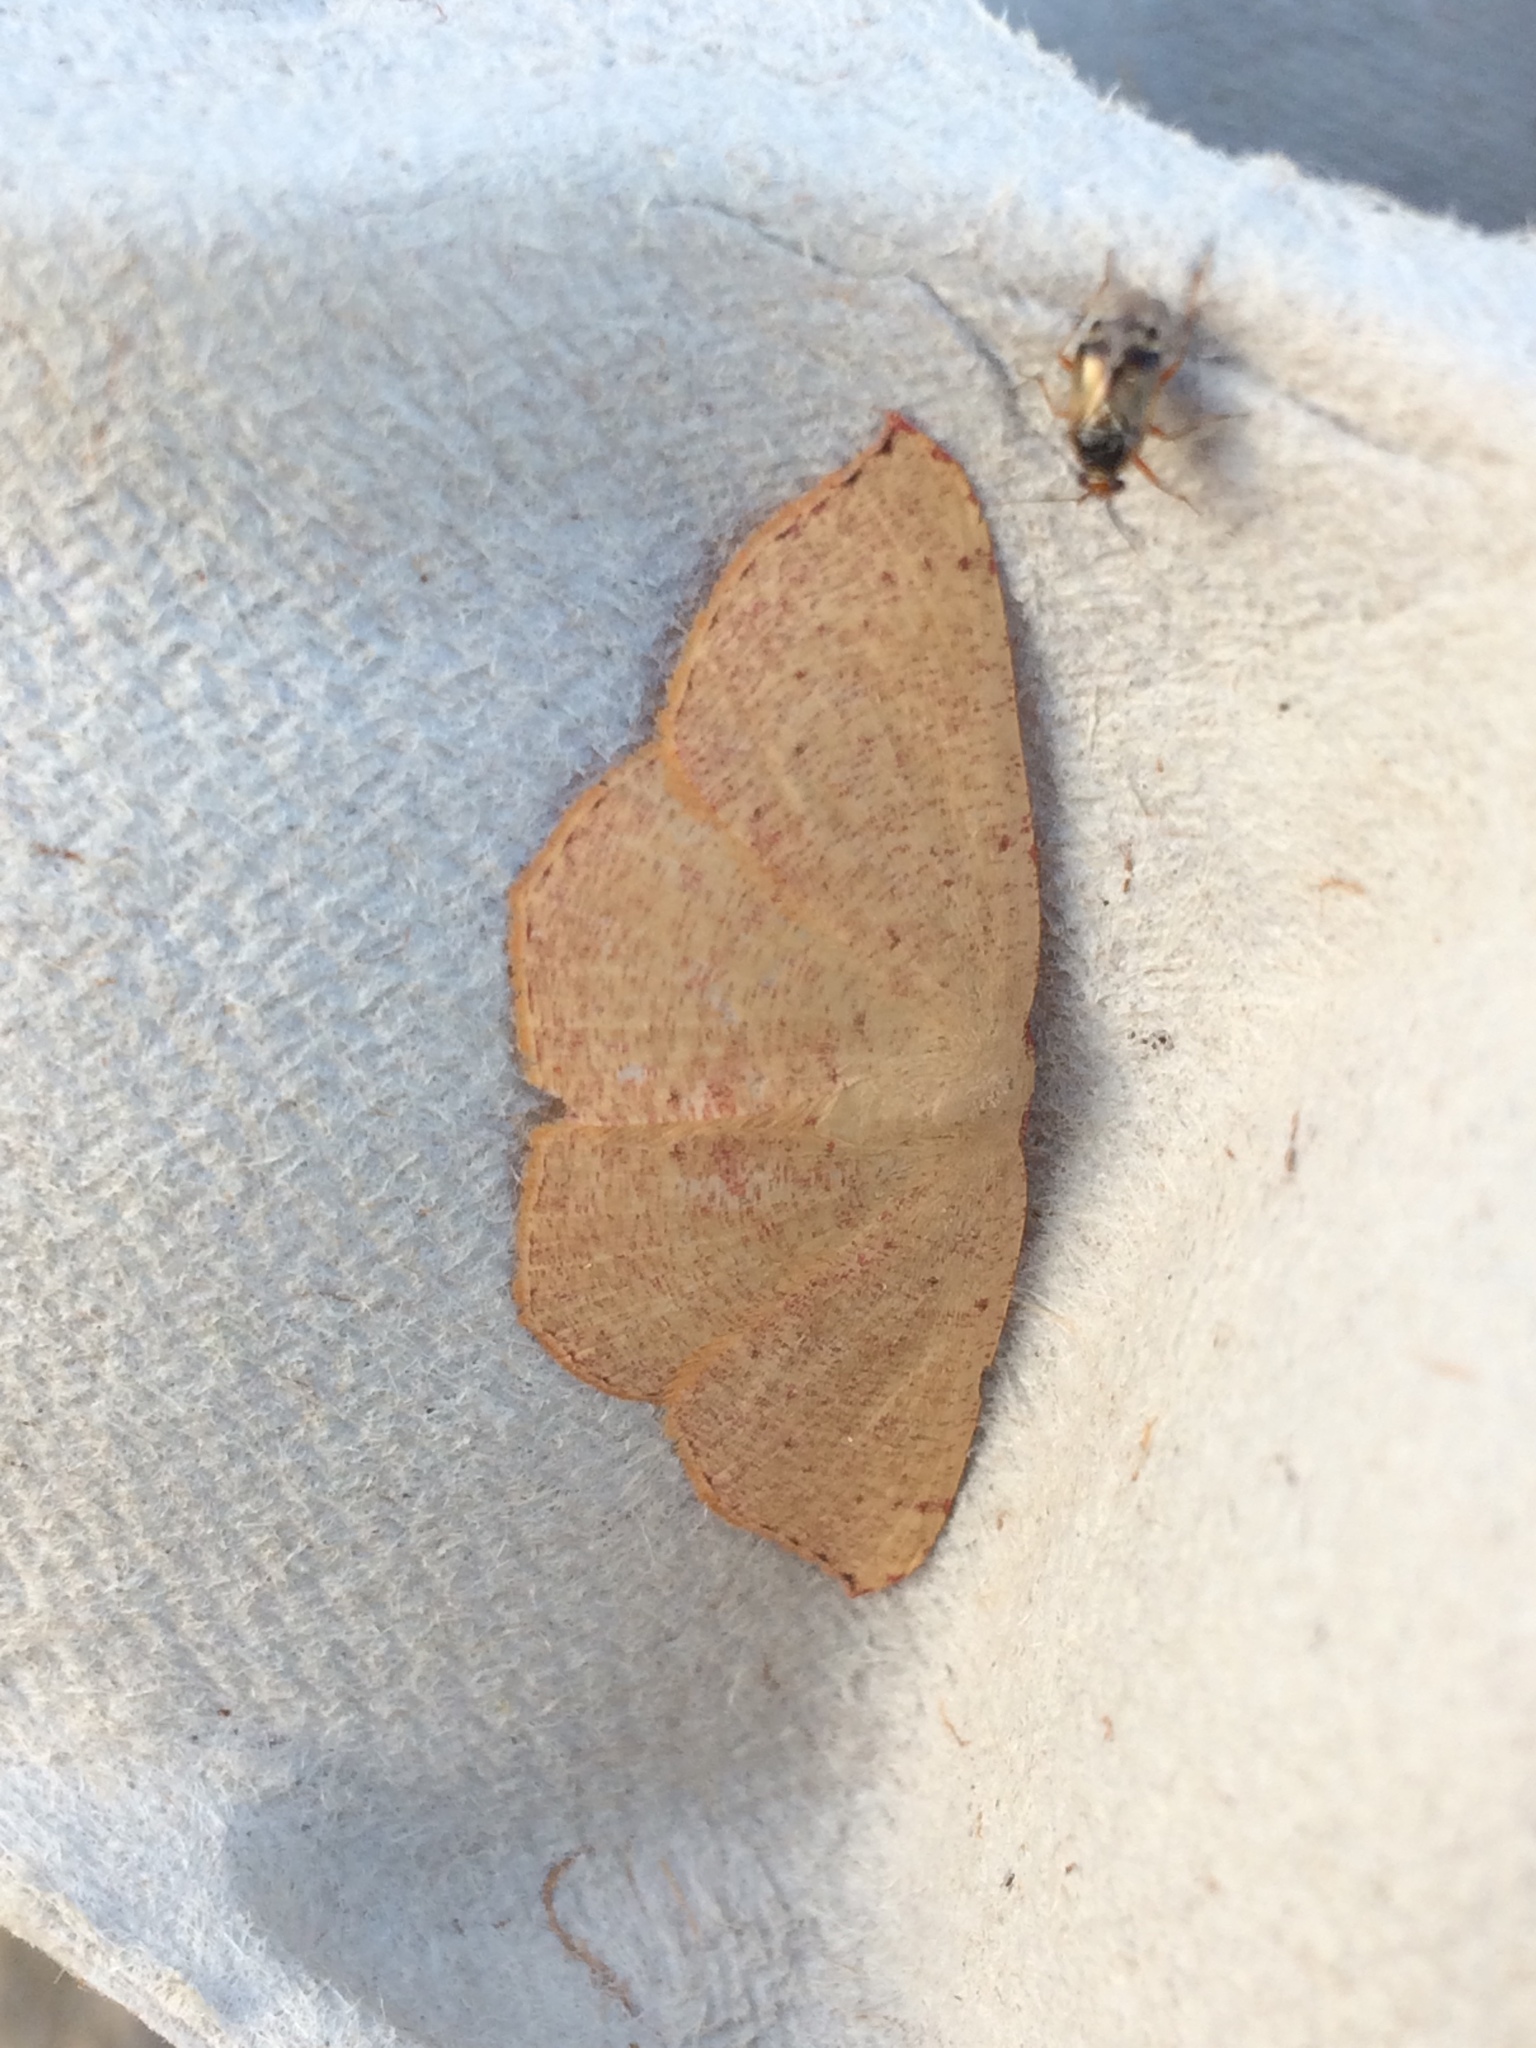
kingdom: Animalia
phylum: Arthropoda
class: Insecta
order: Lepidoptera
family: Geometridae
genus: Cyclophora
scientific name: Cyclophora puppillaria
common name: Blair's mocha
